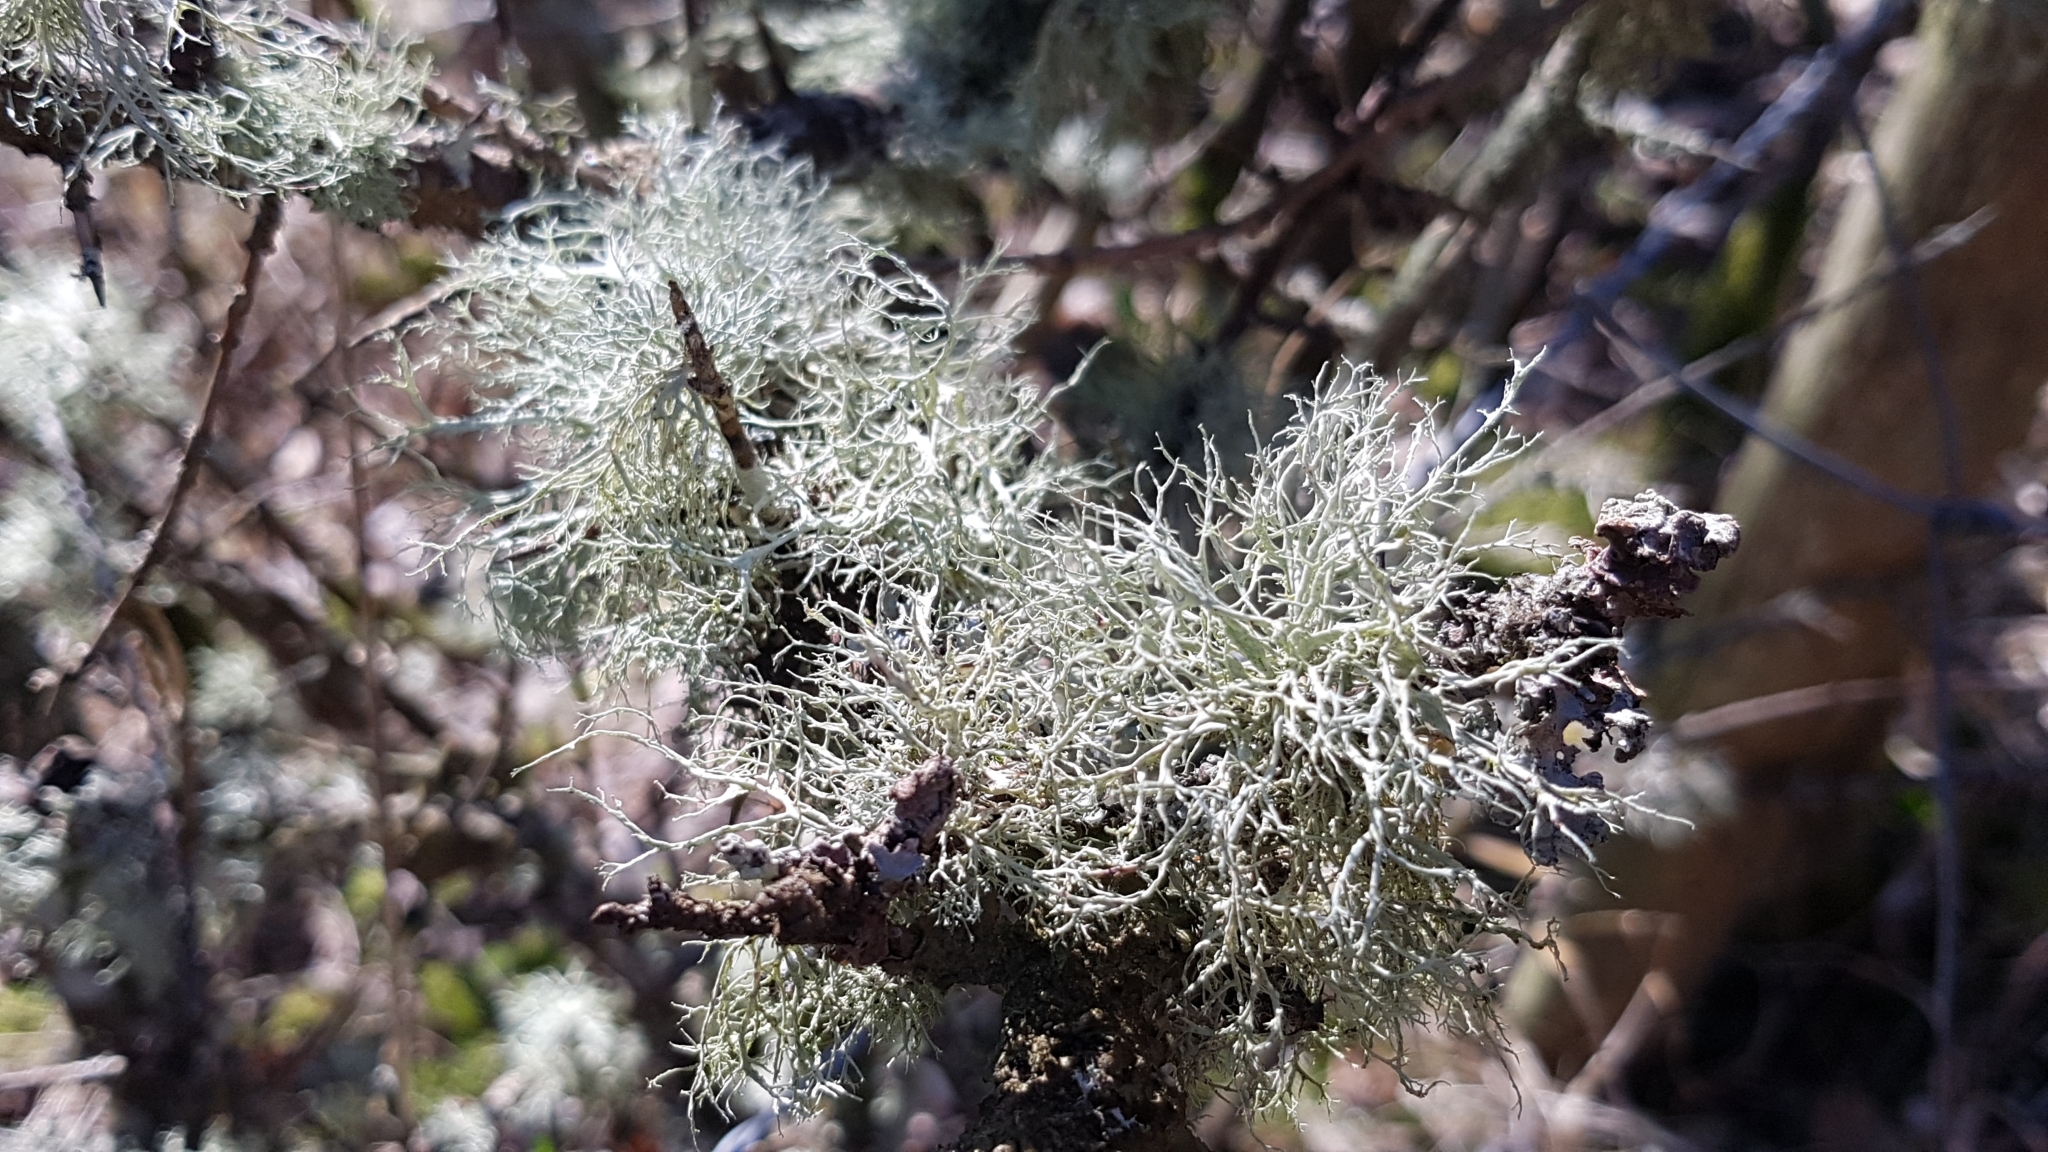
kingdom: Fungi
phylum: Ascomycota
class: Lecanoromycetes
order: Lecanorales
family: Ramalinaceae
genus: Ramalina
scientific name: Ramalina farinacea
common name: Farinose cartilage lichen
